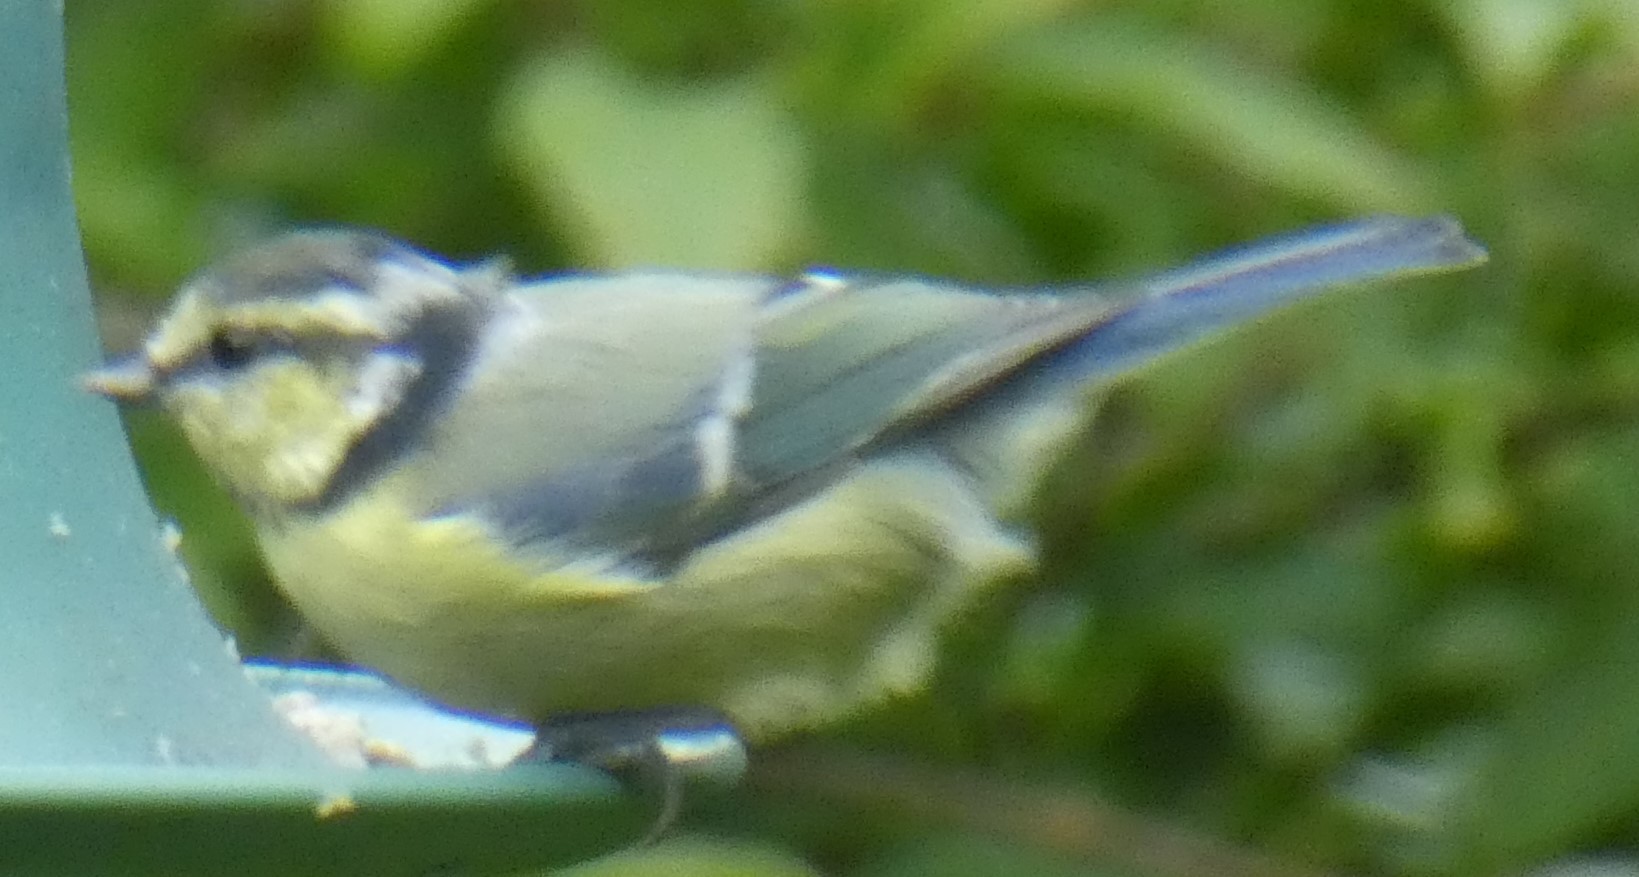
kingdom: Animalia
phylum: Chordata
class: Aves
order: Passeriformes
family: Paridae
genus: Cyanistes
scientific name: Cyanistes caeruleus
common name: Eurasian blue tit
